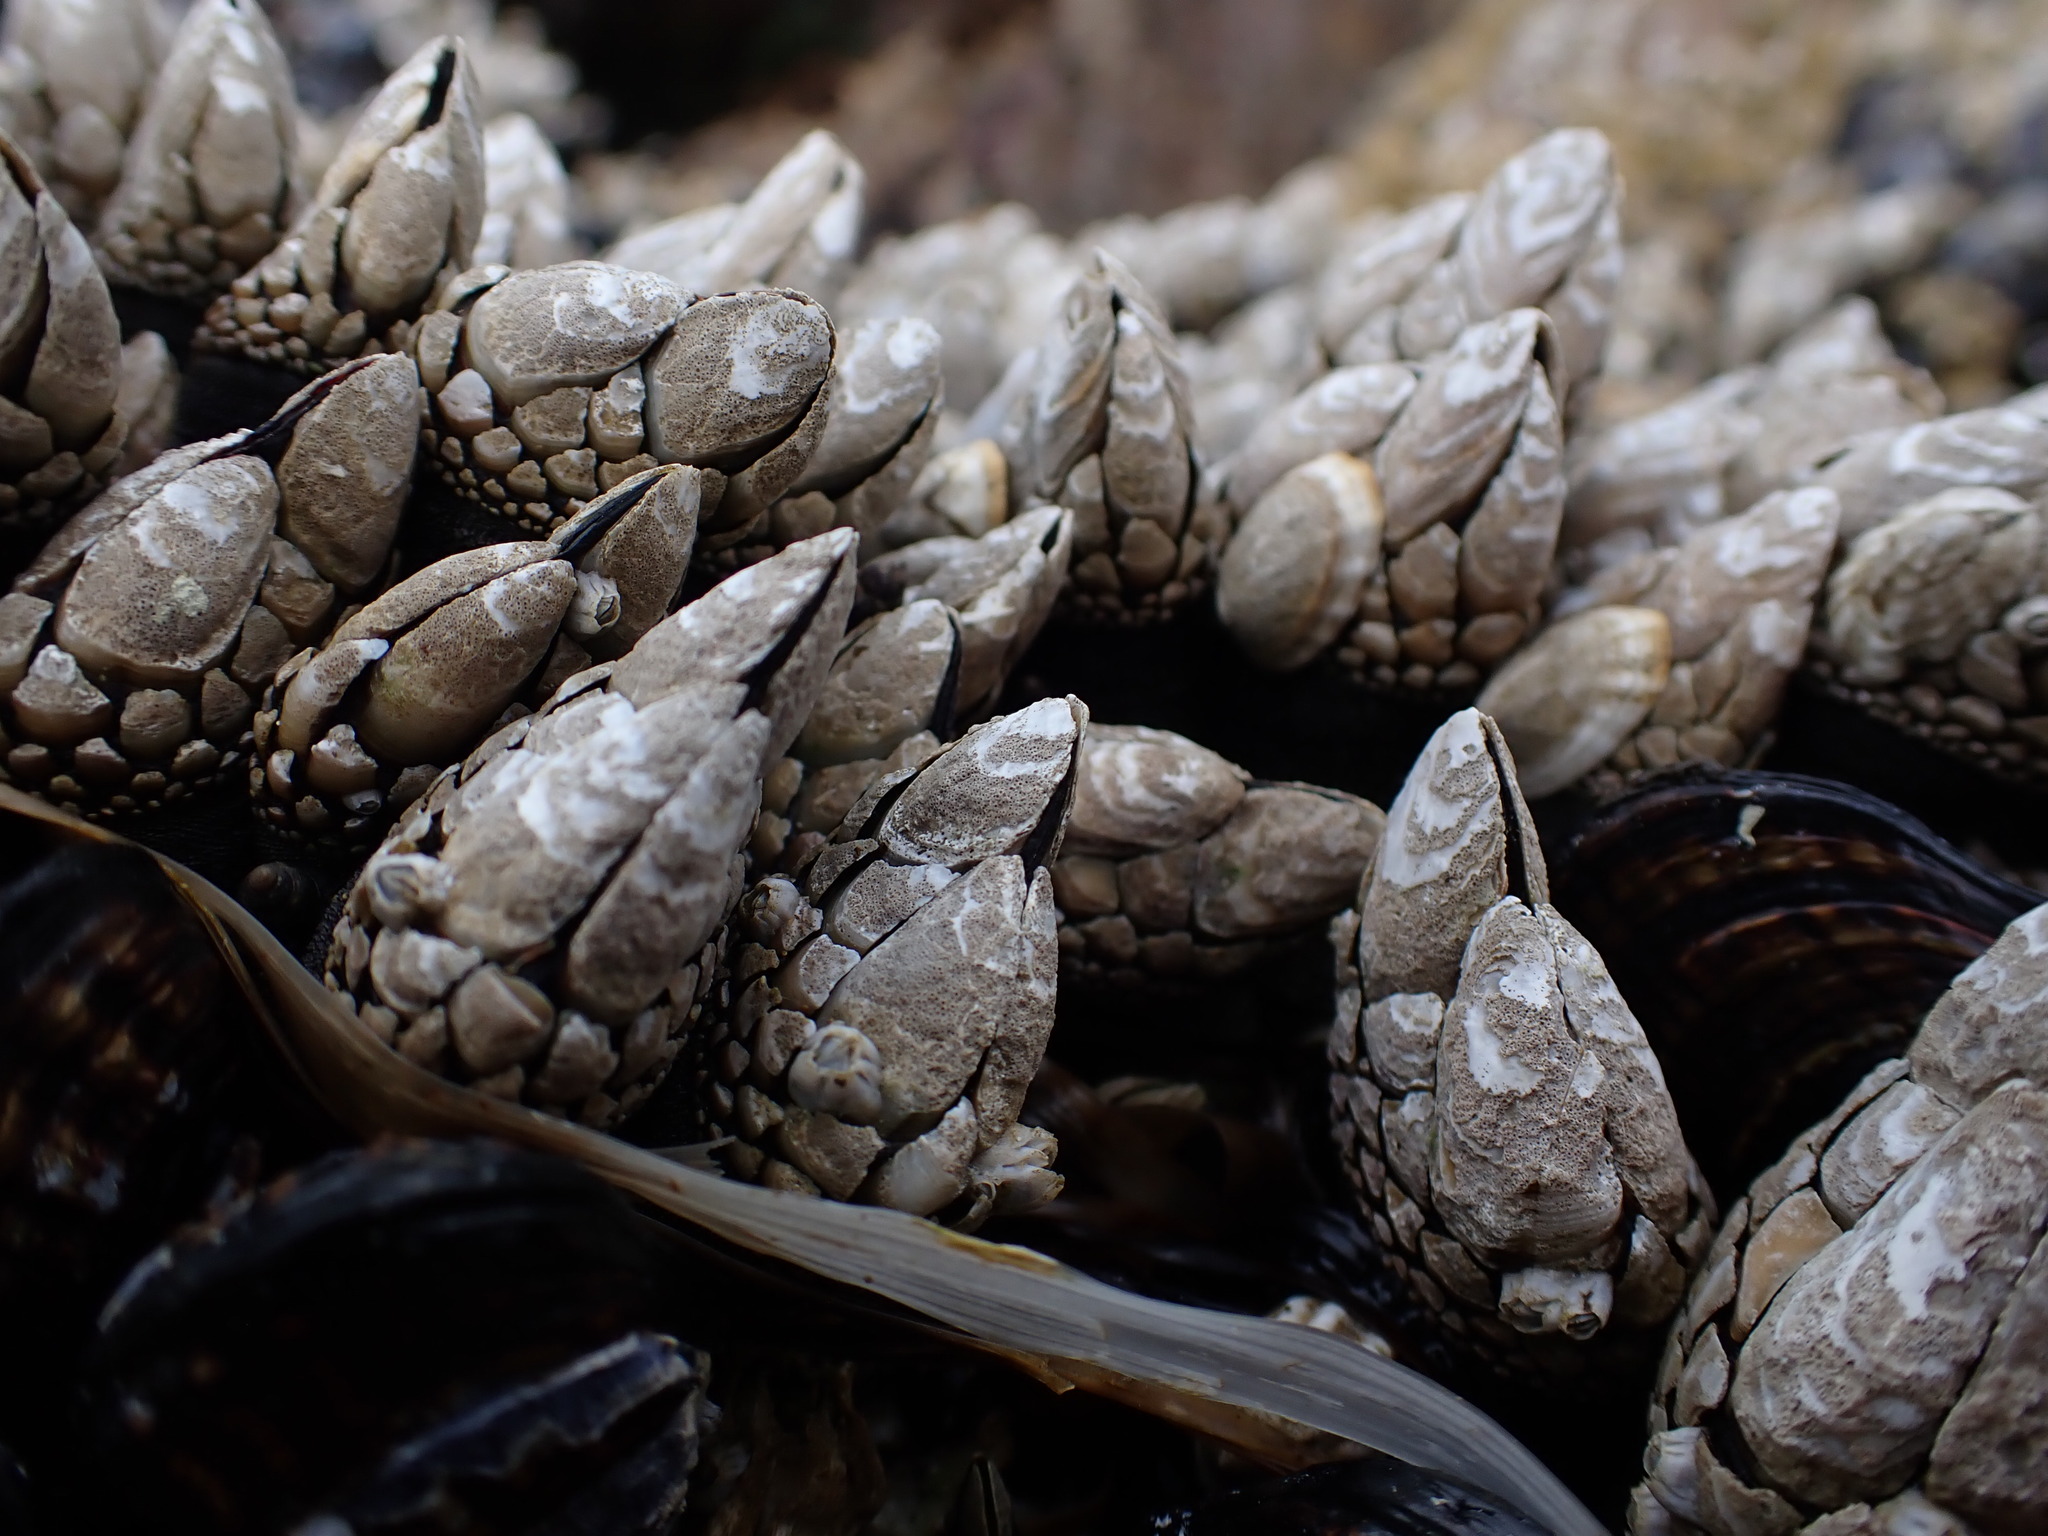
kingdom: Animalia
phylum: Arthropoda
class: Maxillopoda
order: Pedunculata
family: Pollicipedidae
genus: Pollicipes
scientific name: Pollicipes polymerus
